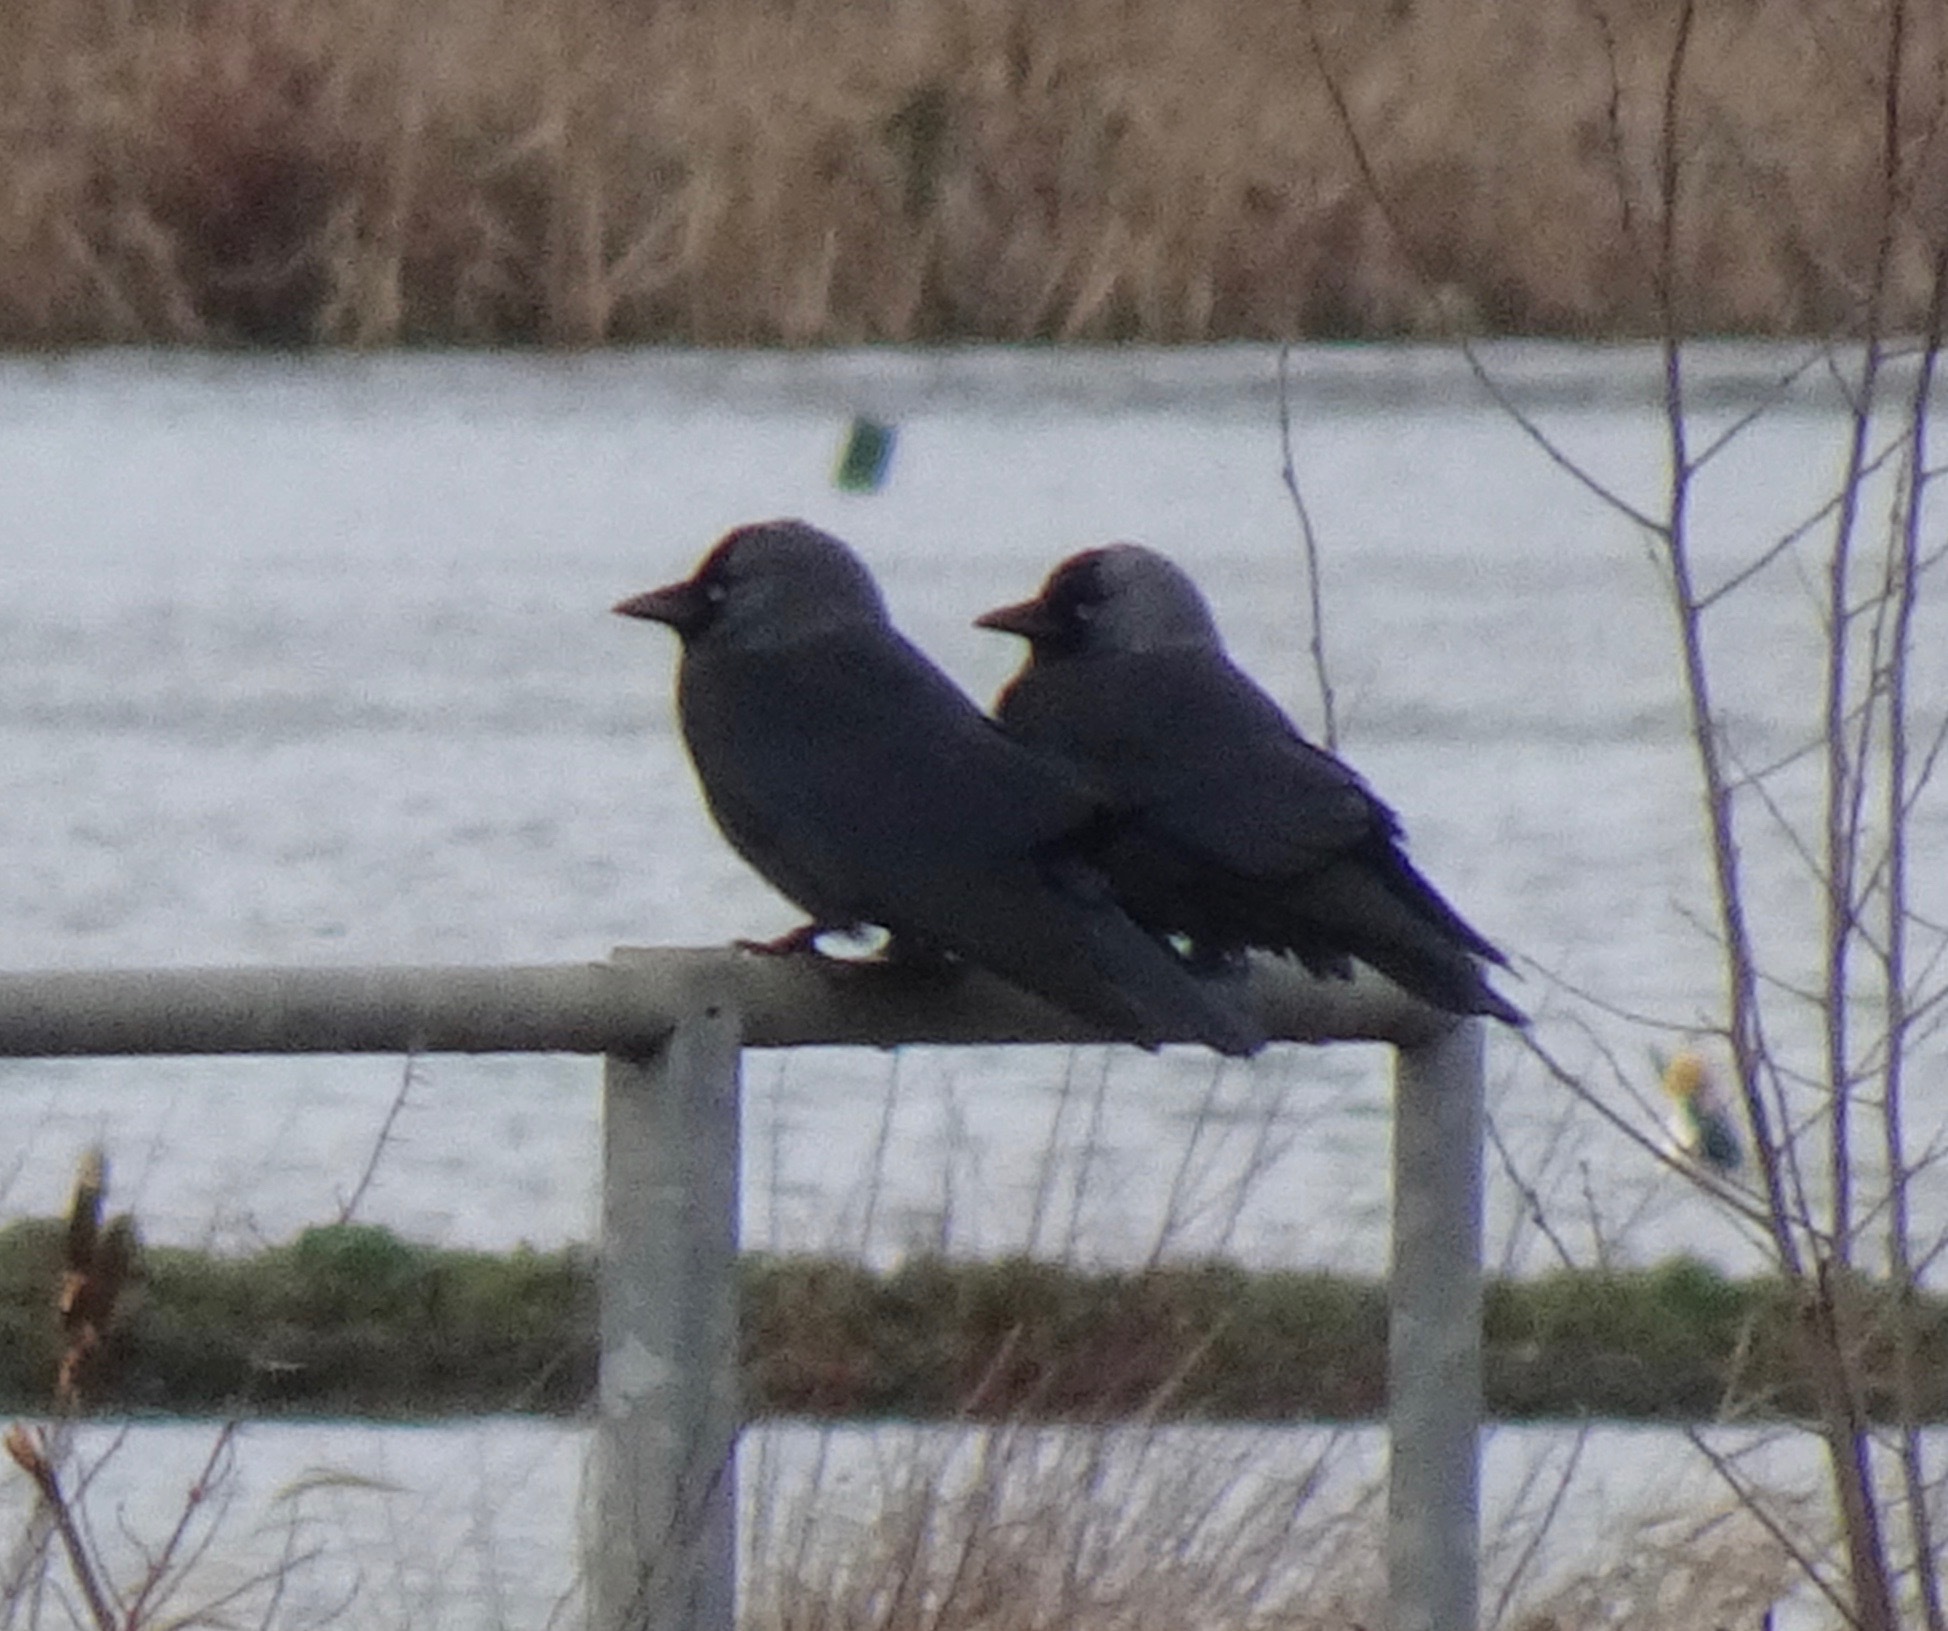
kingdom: Animalia
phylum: Chordata
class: Aves
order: Passeriformes
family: Corvidae
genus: Coloeus
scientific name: Coloeus monedula
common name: Western jackdaw
